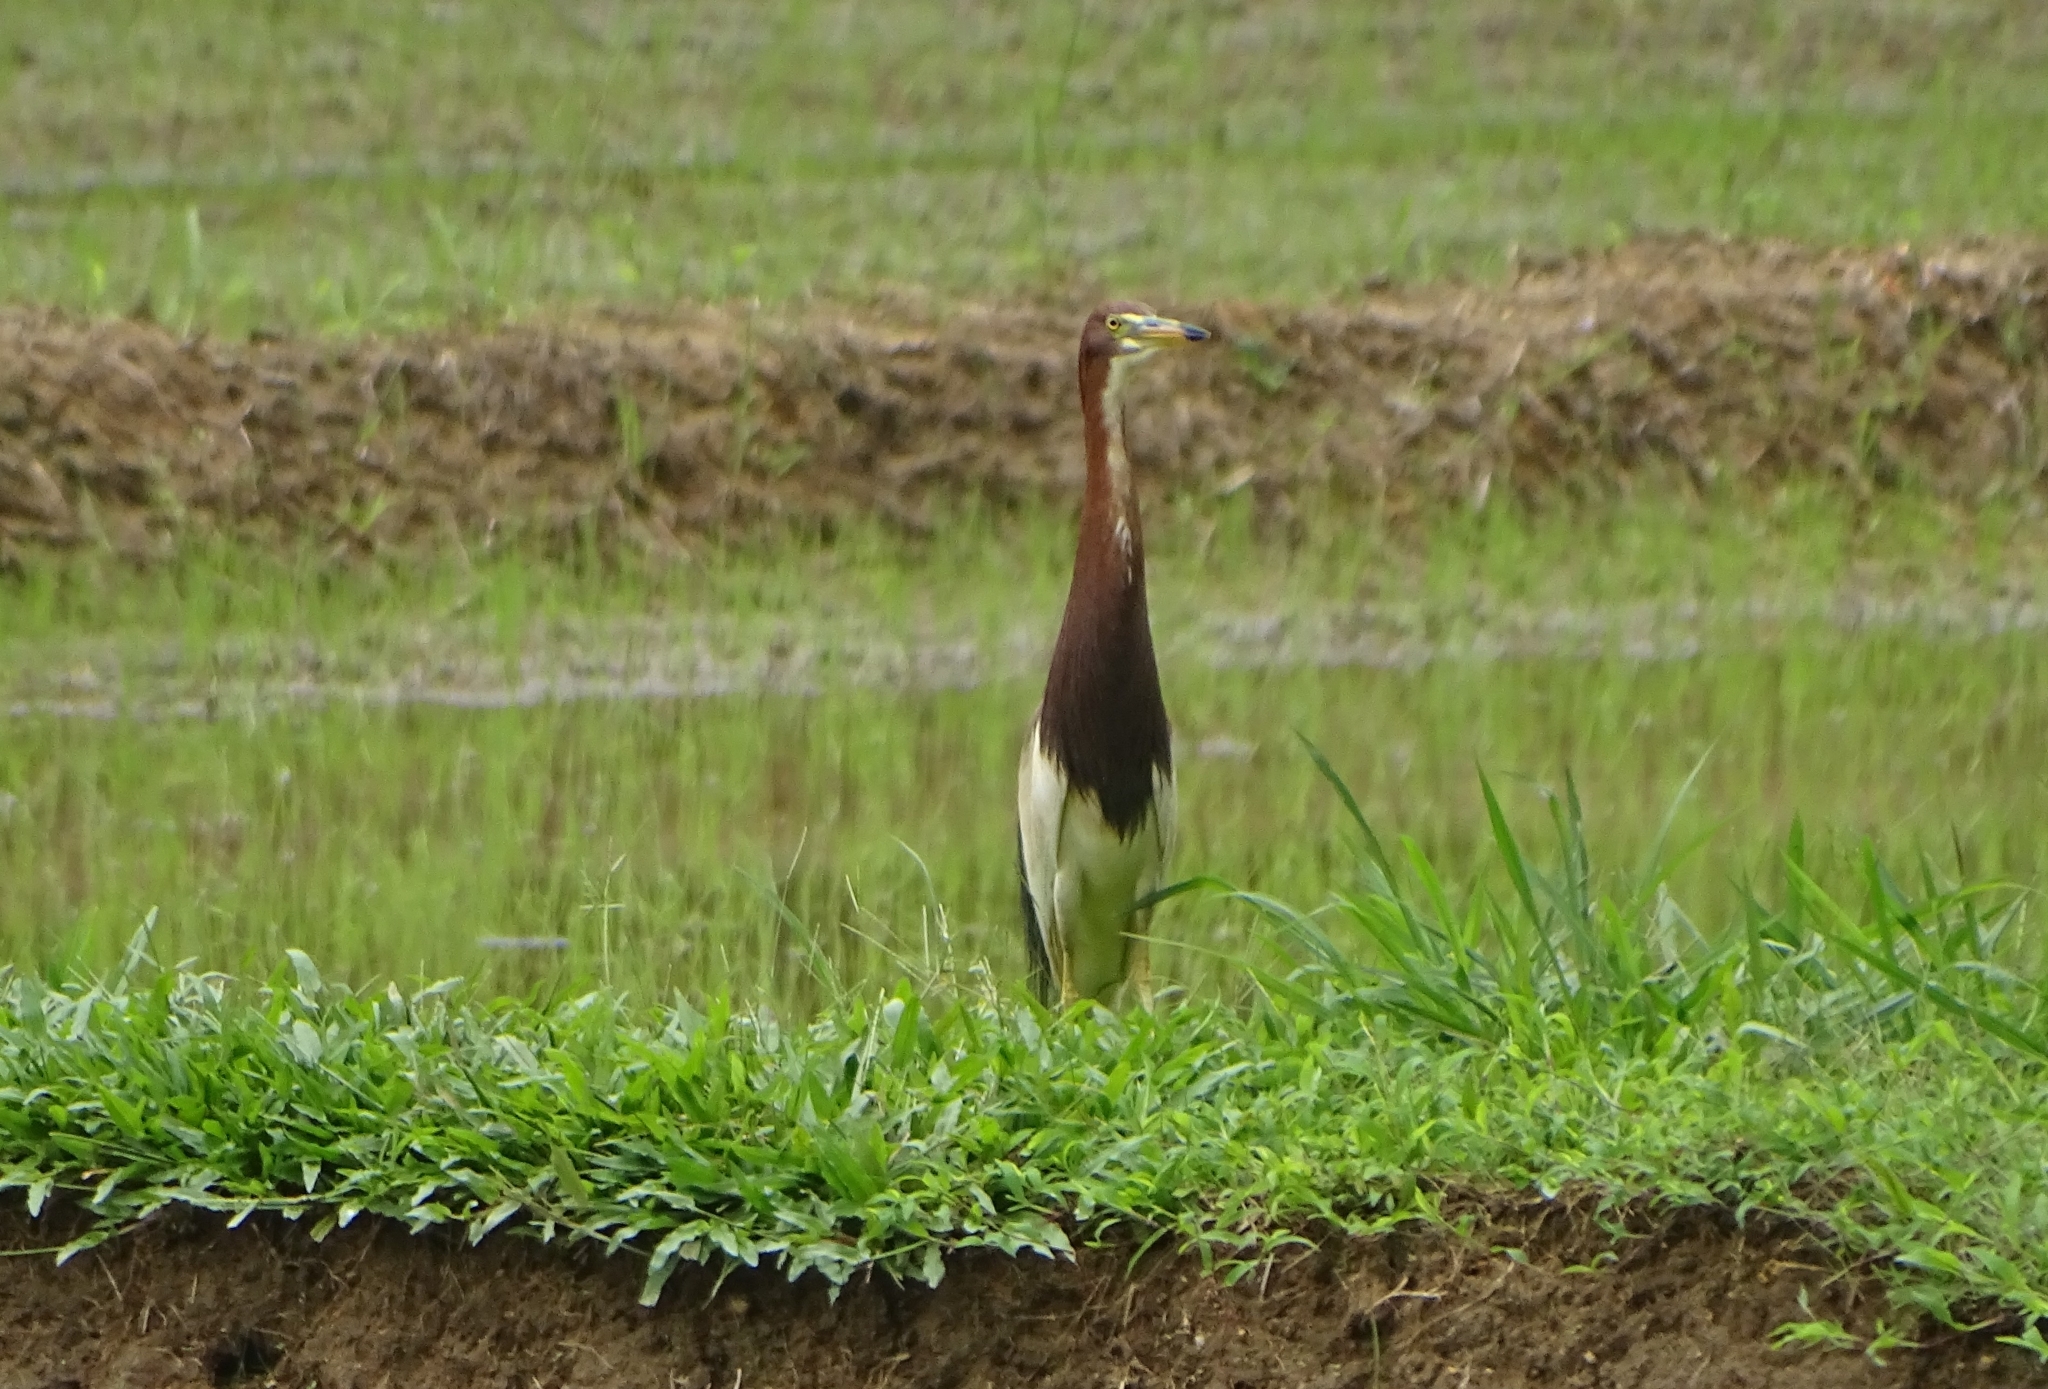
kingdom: Animalia
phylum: Chordata
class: Aves
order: Pelecaniformes
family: Ardeidae
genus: Ardeola
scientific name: Ardeola bacchus
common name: Chinese pond heron
